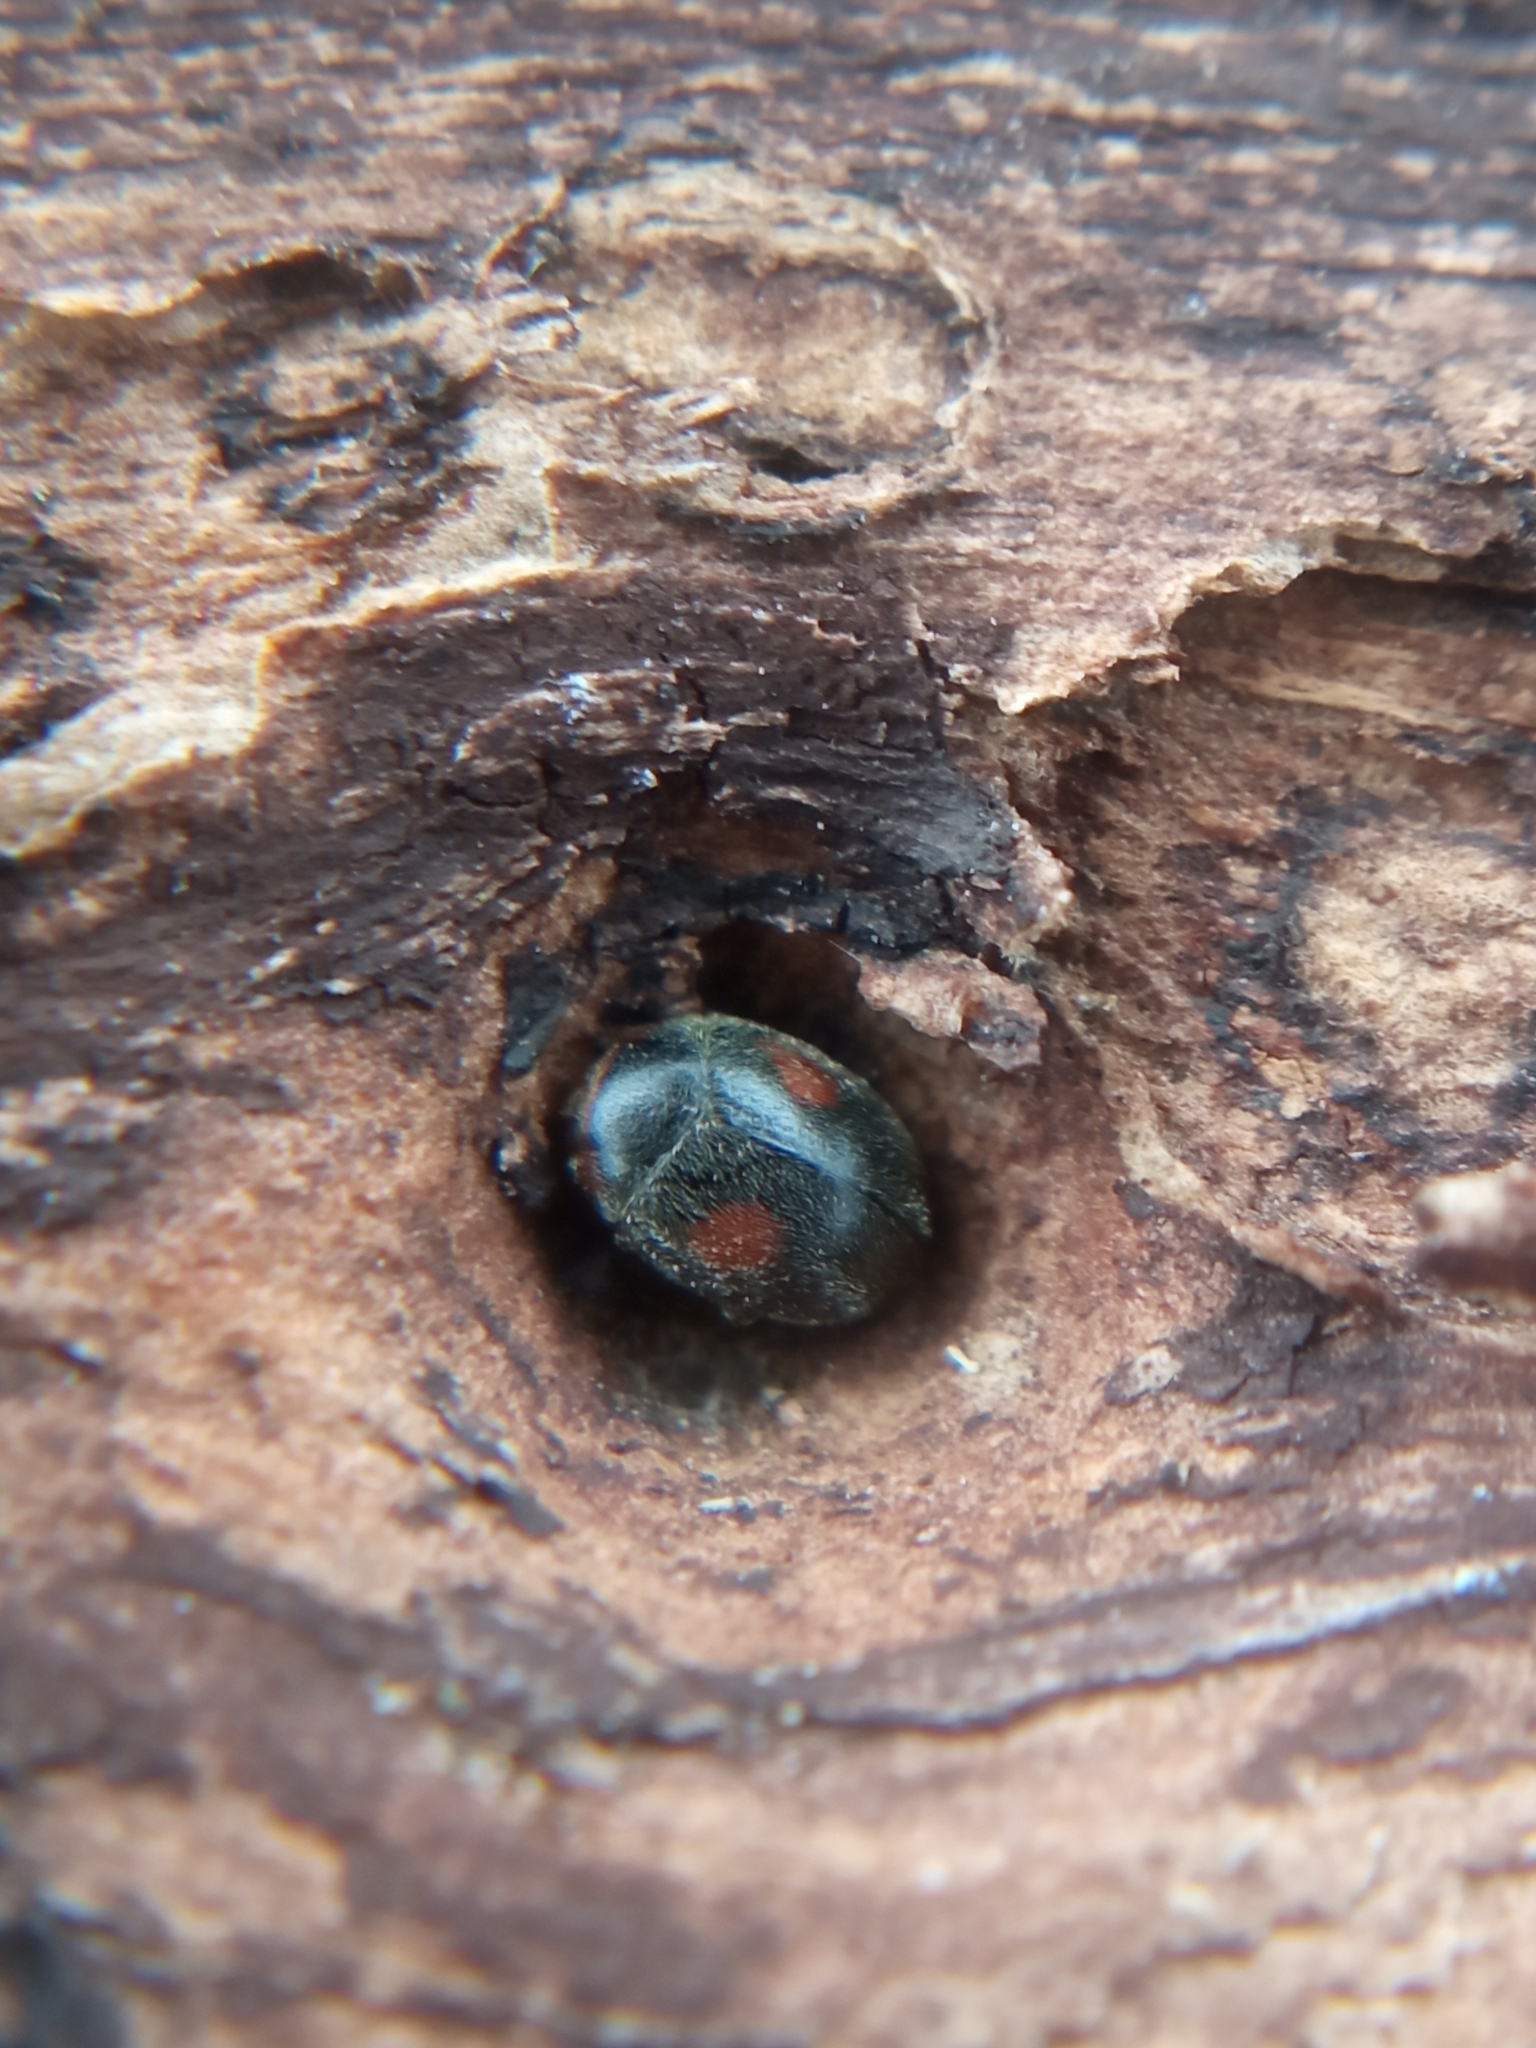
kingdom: Animalia
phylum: Arthropoda
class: Insecta
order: Coleoptera
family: Coccinellidae
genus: Platynaspis
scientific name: Platynaspis luteorubra
